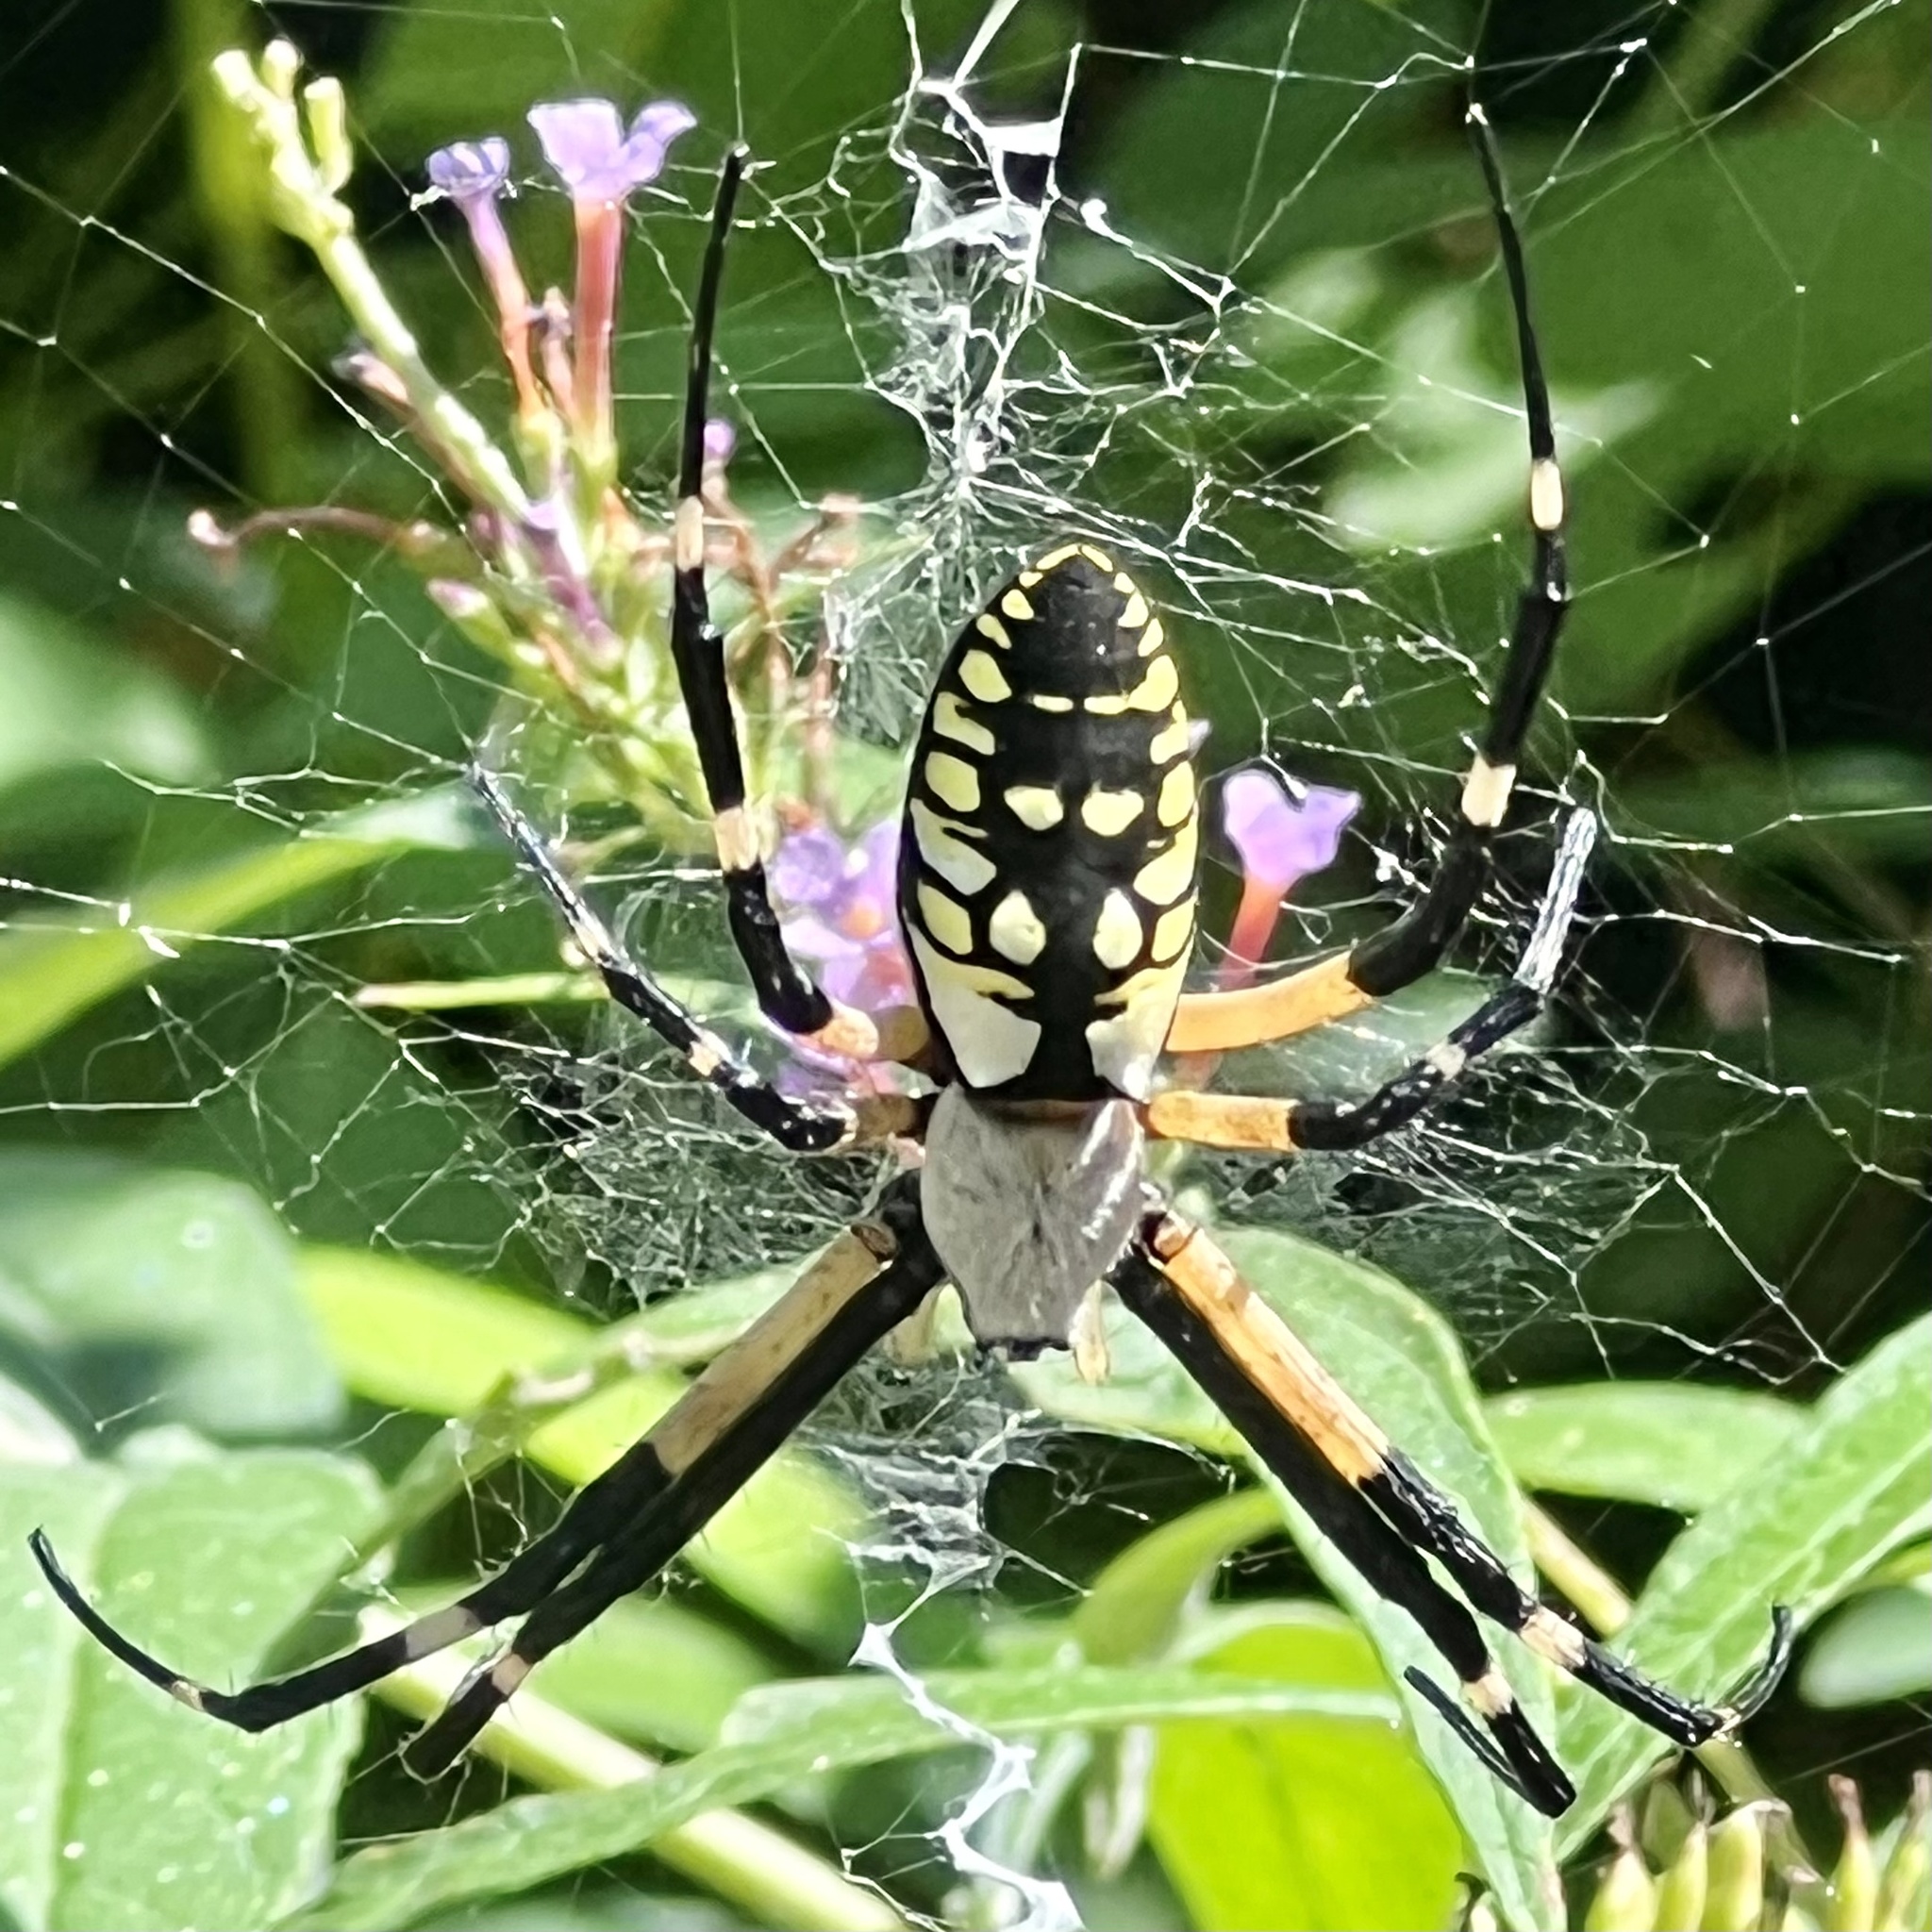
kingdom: Animalia
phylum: Arthropoda
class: Arachnida
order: Araneae
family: Araneidae
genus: Argiope
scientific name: Argiope aurantia
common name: Orb weavers
